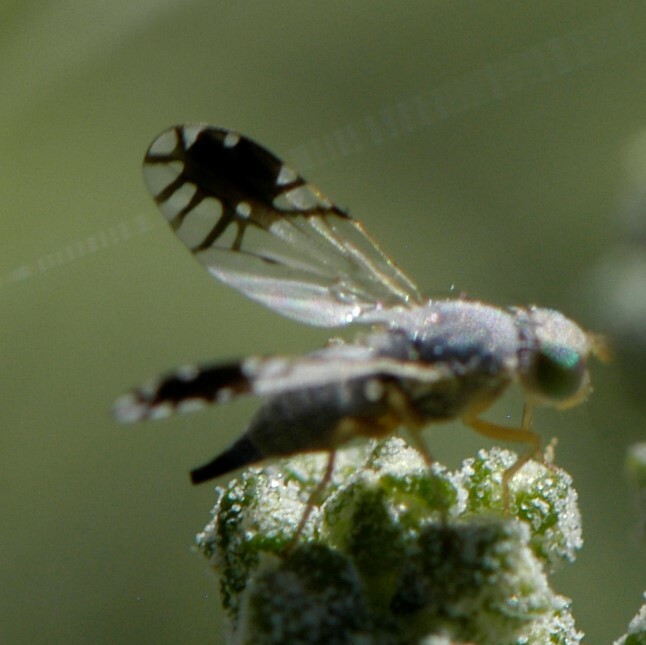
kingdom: Animalia
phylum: Arthropoda
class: Insecta
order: Diptera
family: Tephritidae
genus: Trupanea
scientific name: Trupanea vicina
